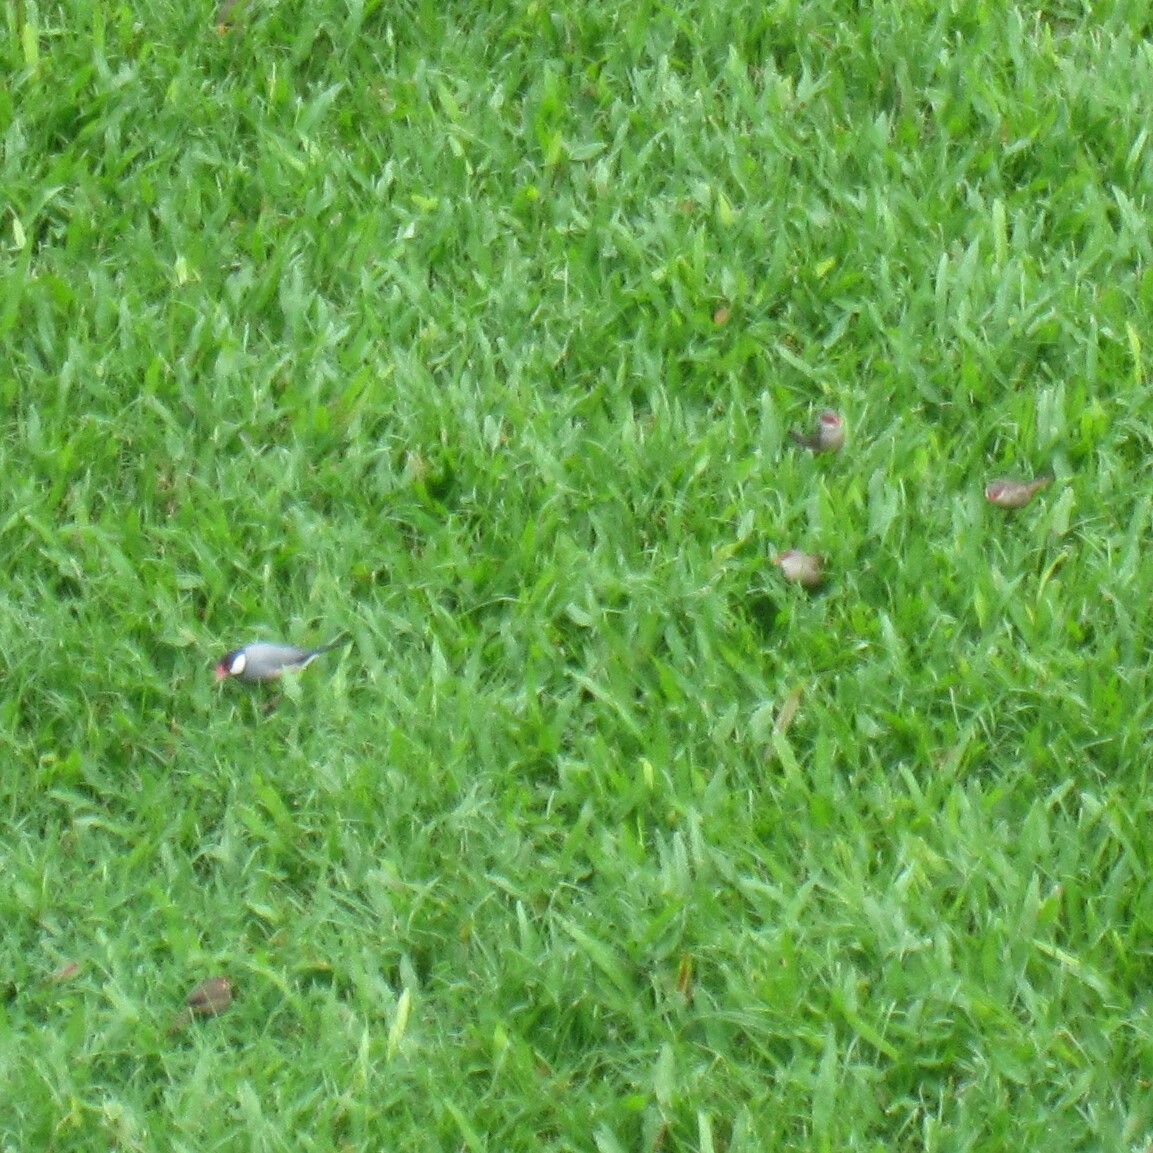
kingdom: Animalia
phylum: Chordata
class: Aves
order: Passeriformes
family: Estrildidae
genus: Lonchura
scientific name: Lonchura oryzivora
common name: Java sparrow
